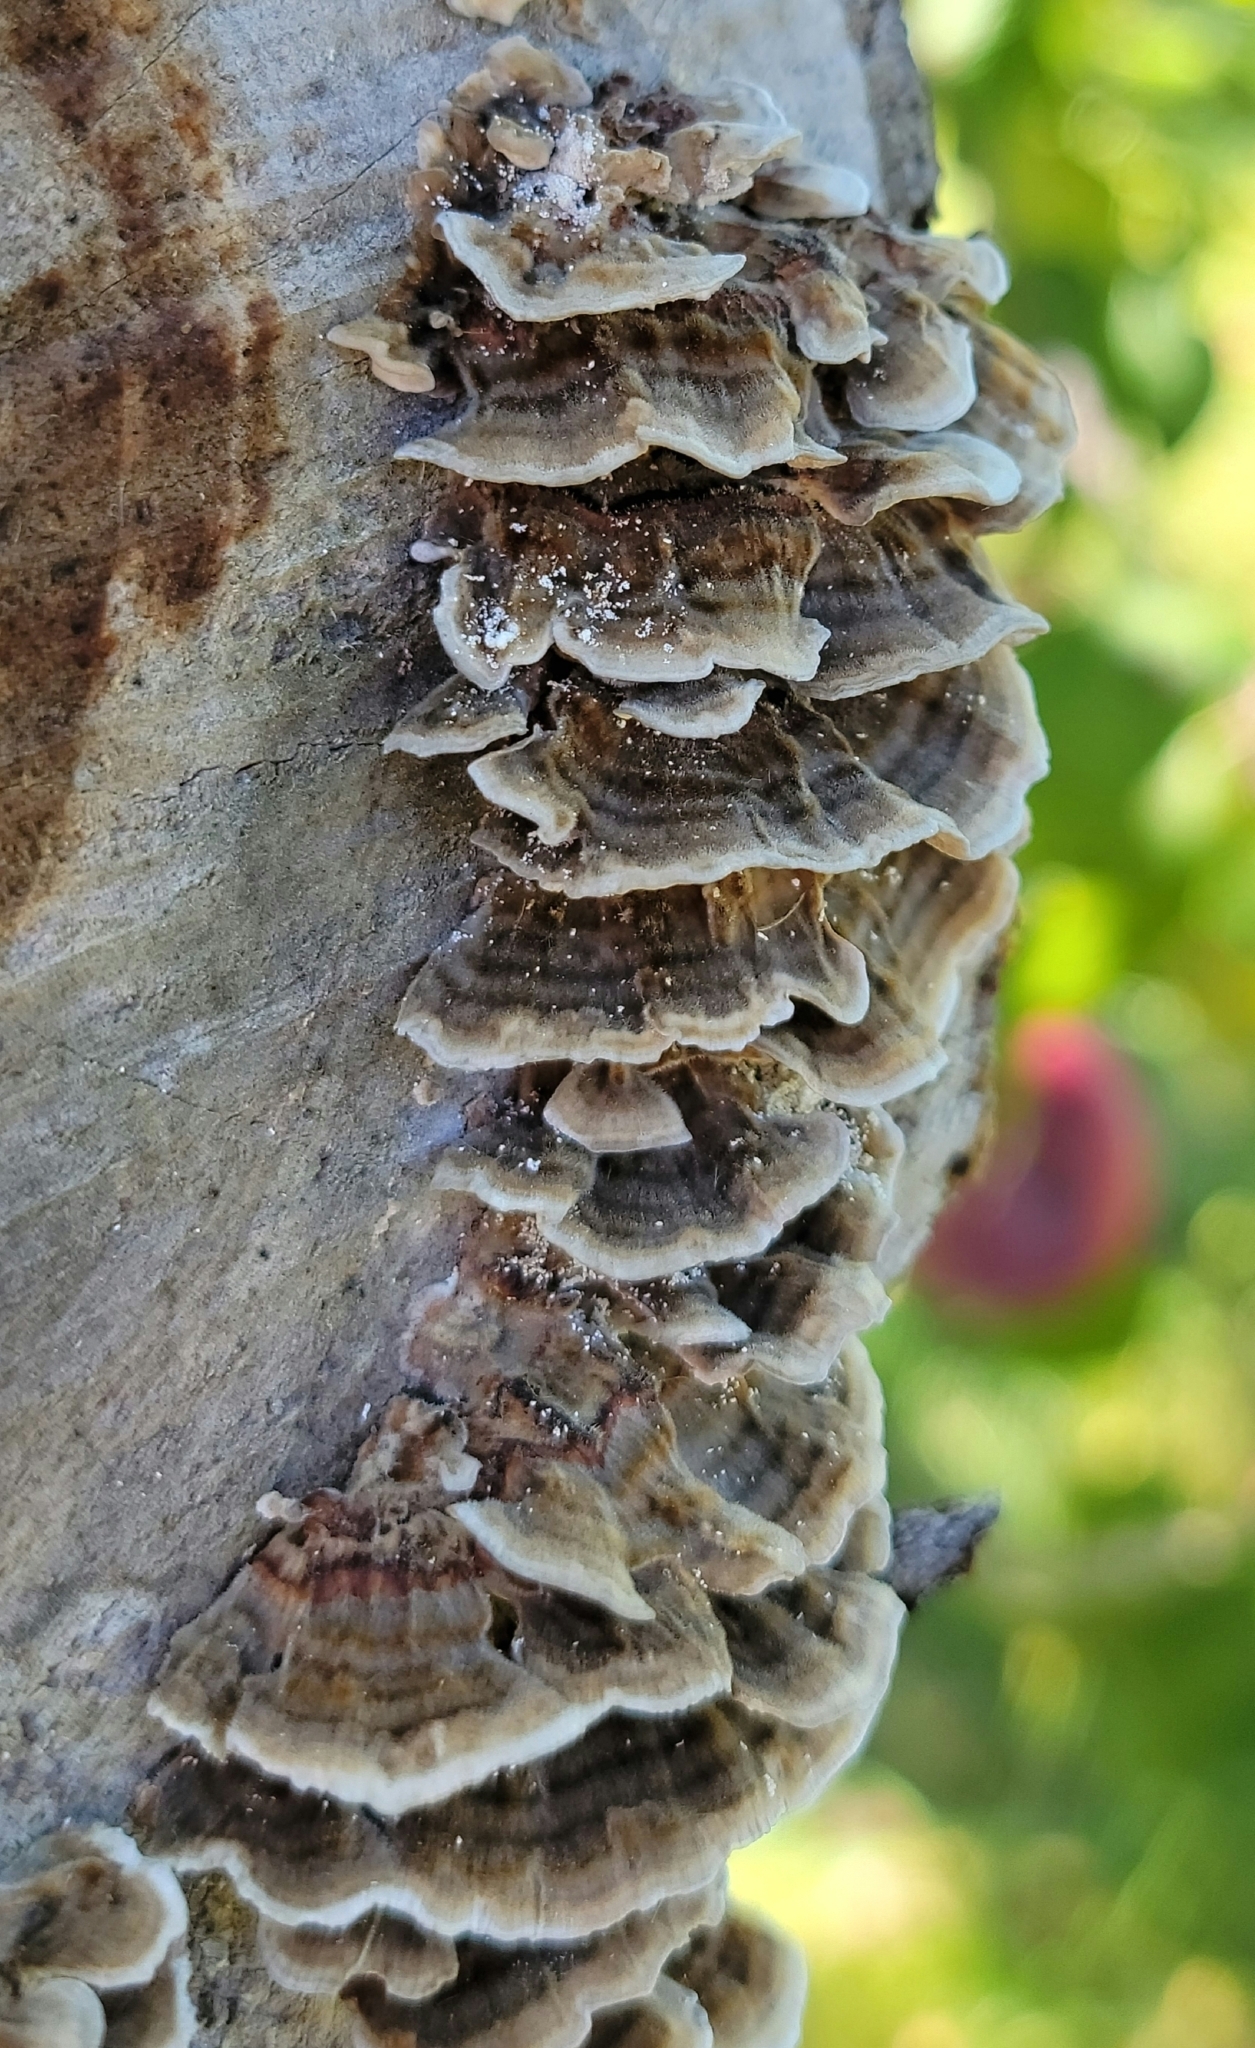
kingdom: Fungi
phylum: Basidiomycota
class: Agaricomycetes
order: Polyporales
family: Polyporaceae
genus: Trametes
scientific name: Trametes versicolor
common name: Turkeytail
